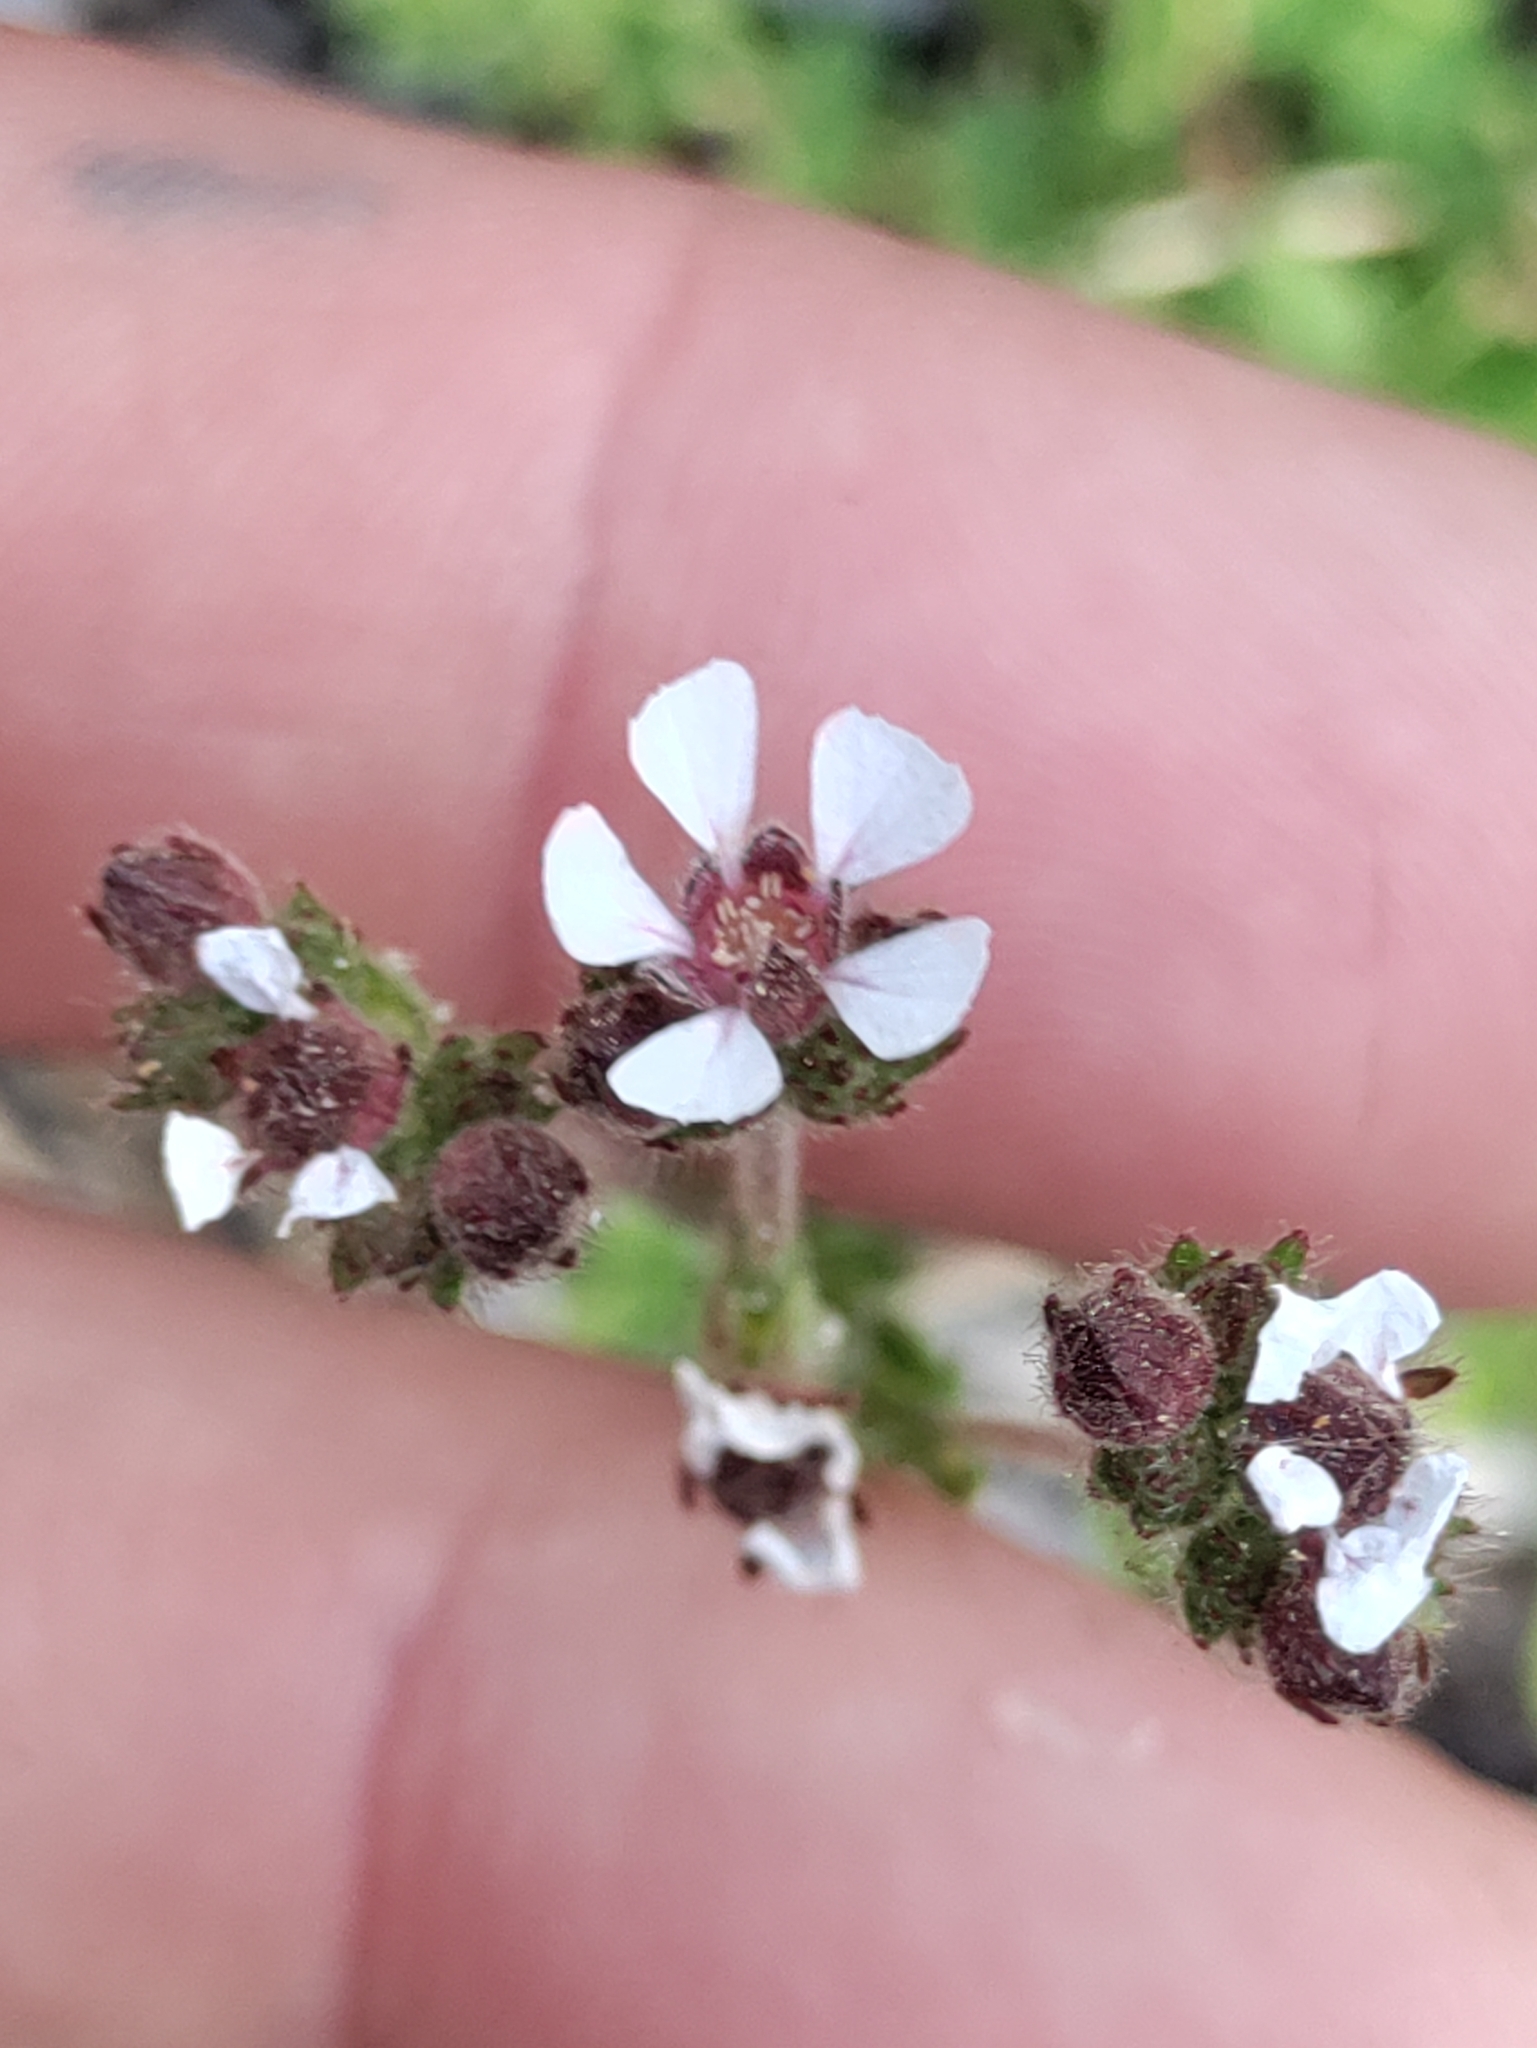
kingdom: Plantae
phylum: Tracheophyta
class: Magnoliopsida
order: Rosales
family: Rosaceae
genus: Potentilla
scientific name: Potentilla douglasii
